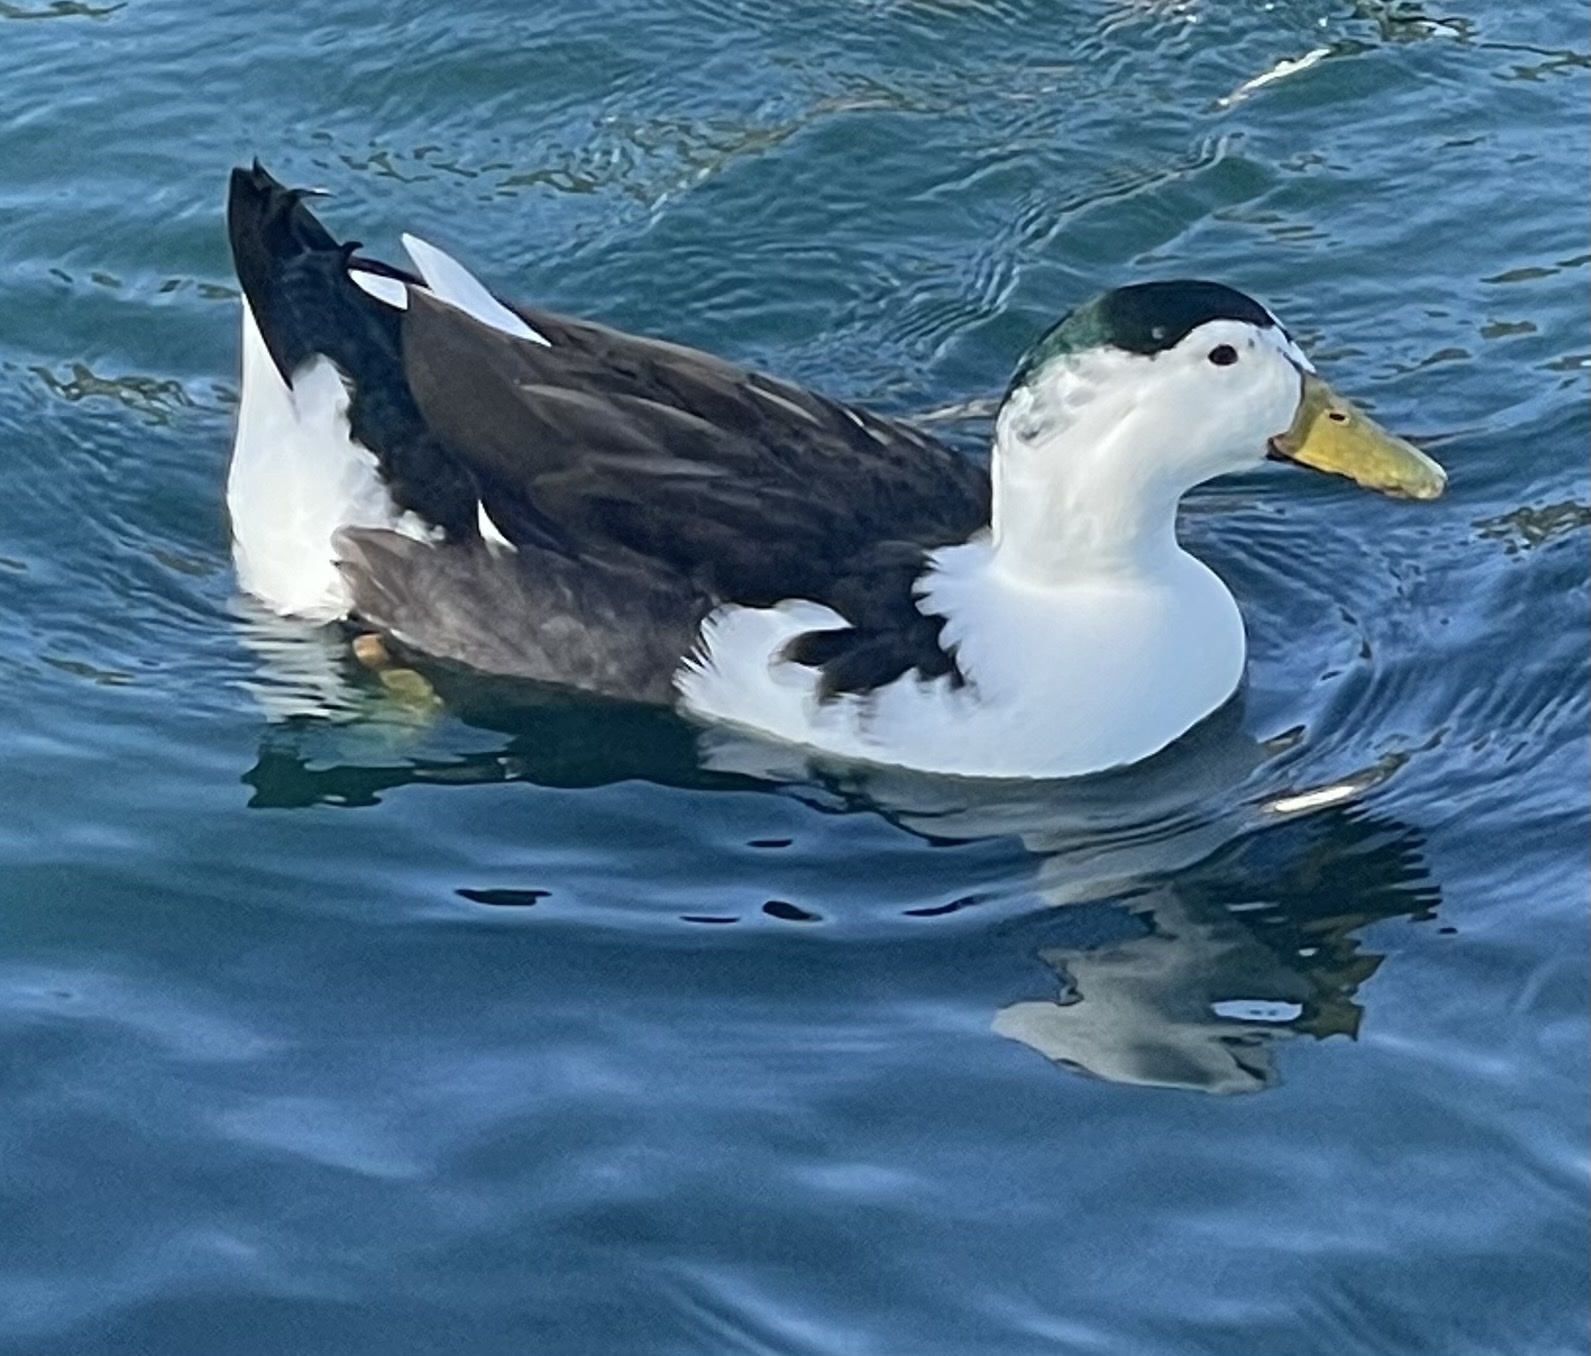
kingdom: Animalia
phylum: Chordata
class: Aves
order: Anseriformes
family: Anatidae
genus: Anas
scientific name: Anas platyrhynchos
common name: Mallard
